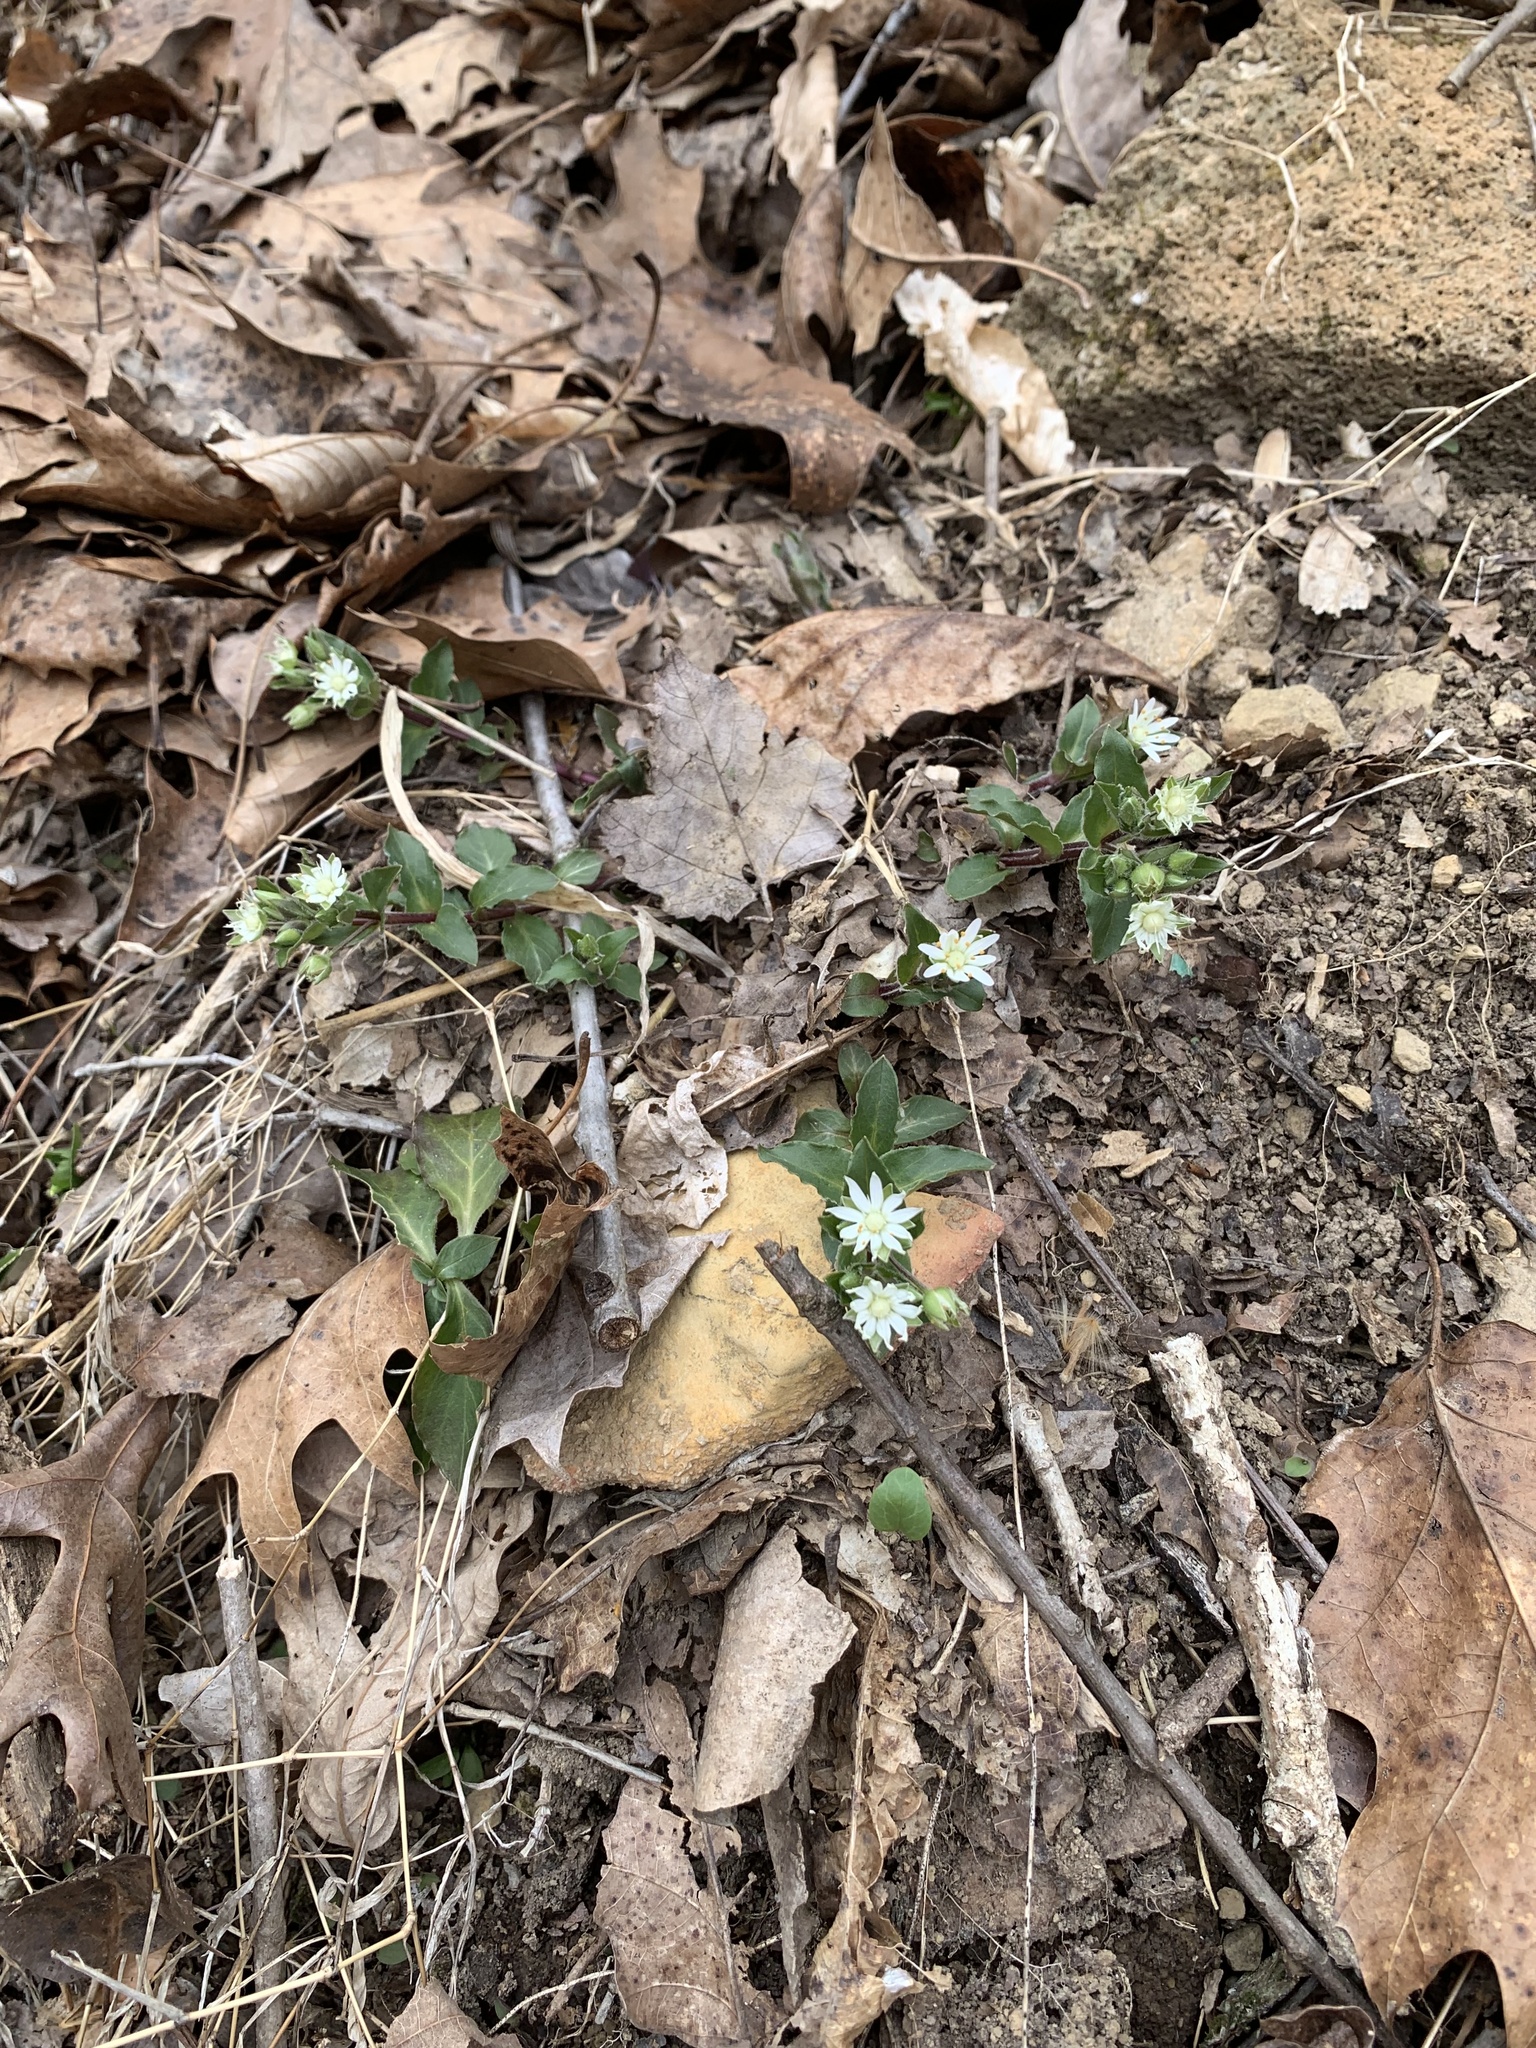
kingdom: Plantae
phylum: Tracheophyta
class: Magnoliopsida
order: Caryophyllales
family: Caryophyllaceae
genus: Stellaria
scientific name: Stellaria pubera
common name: Star chickweed
